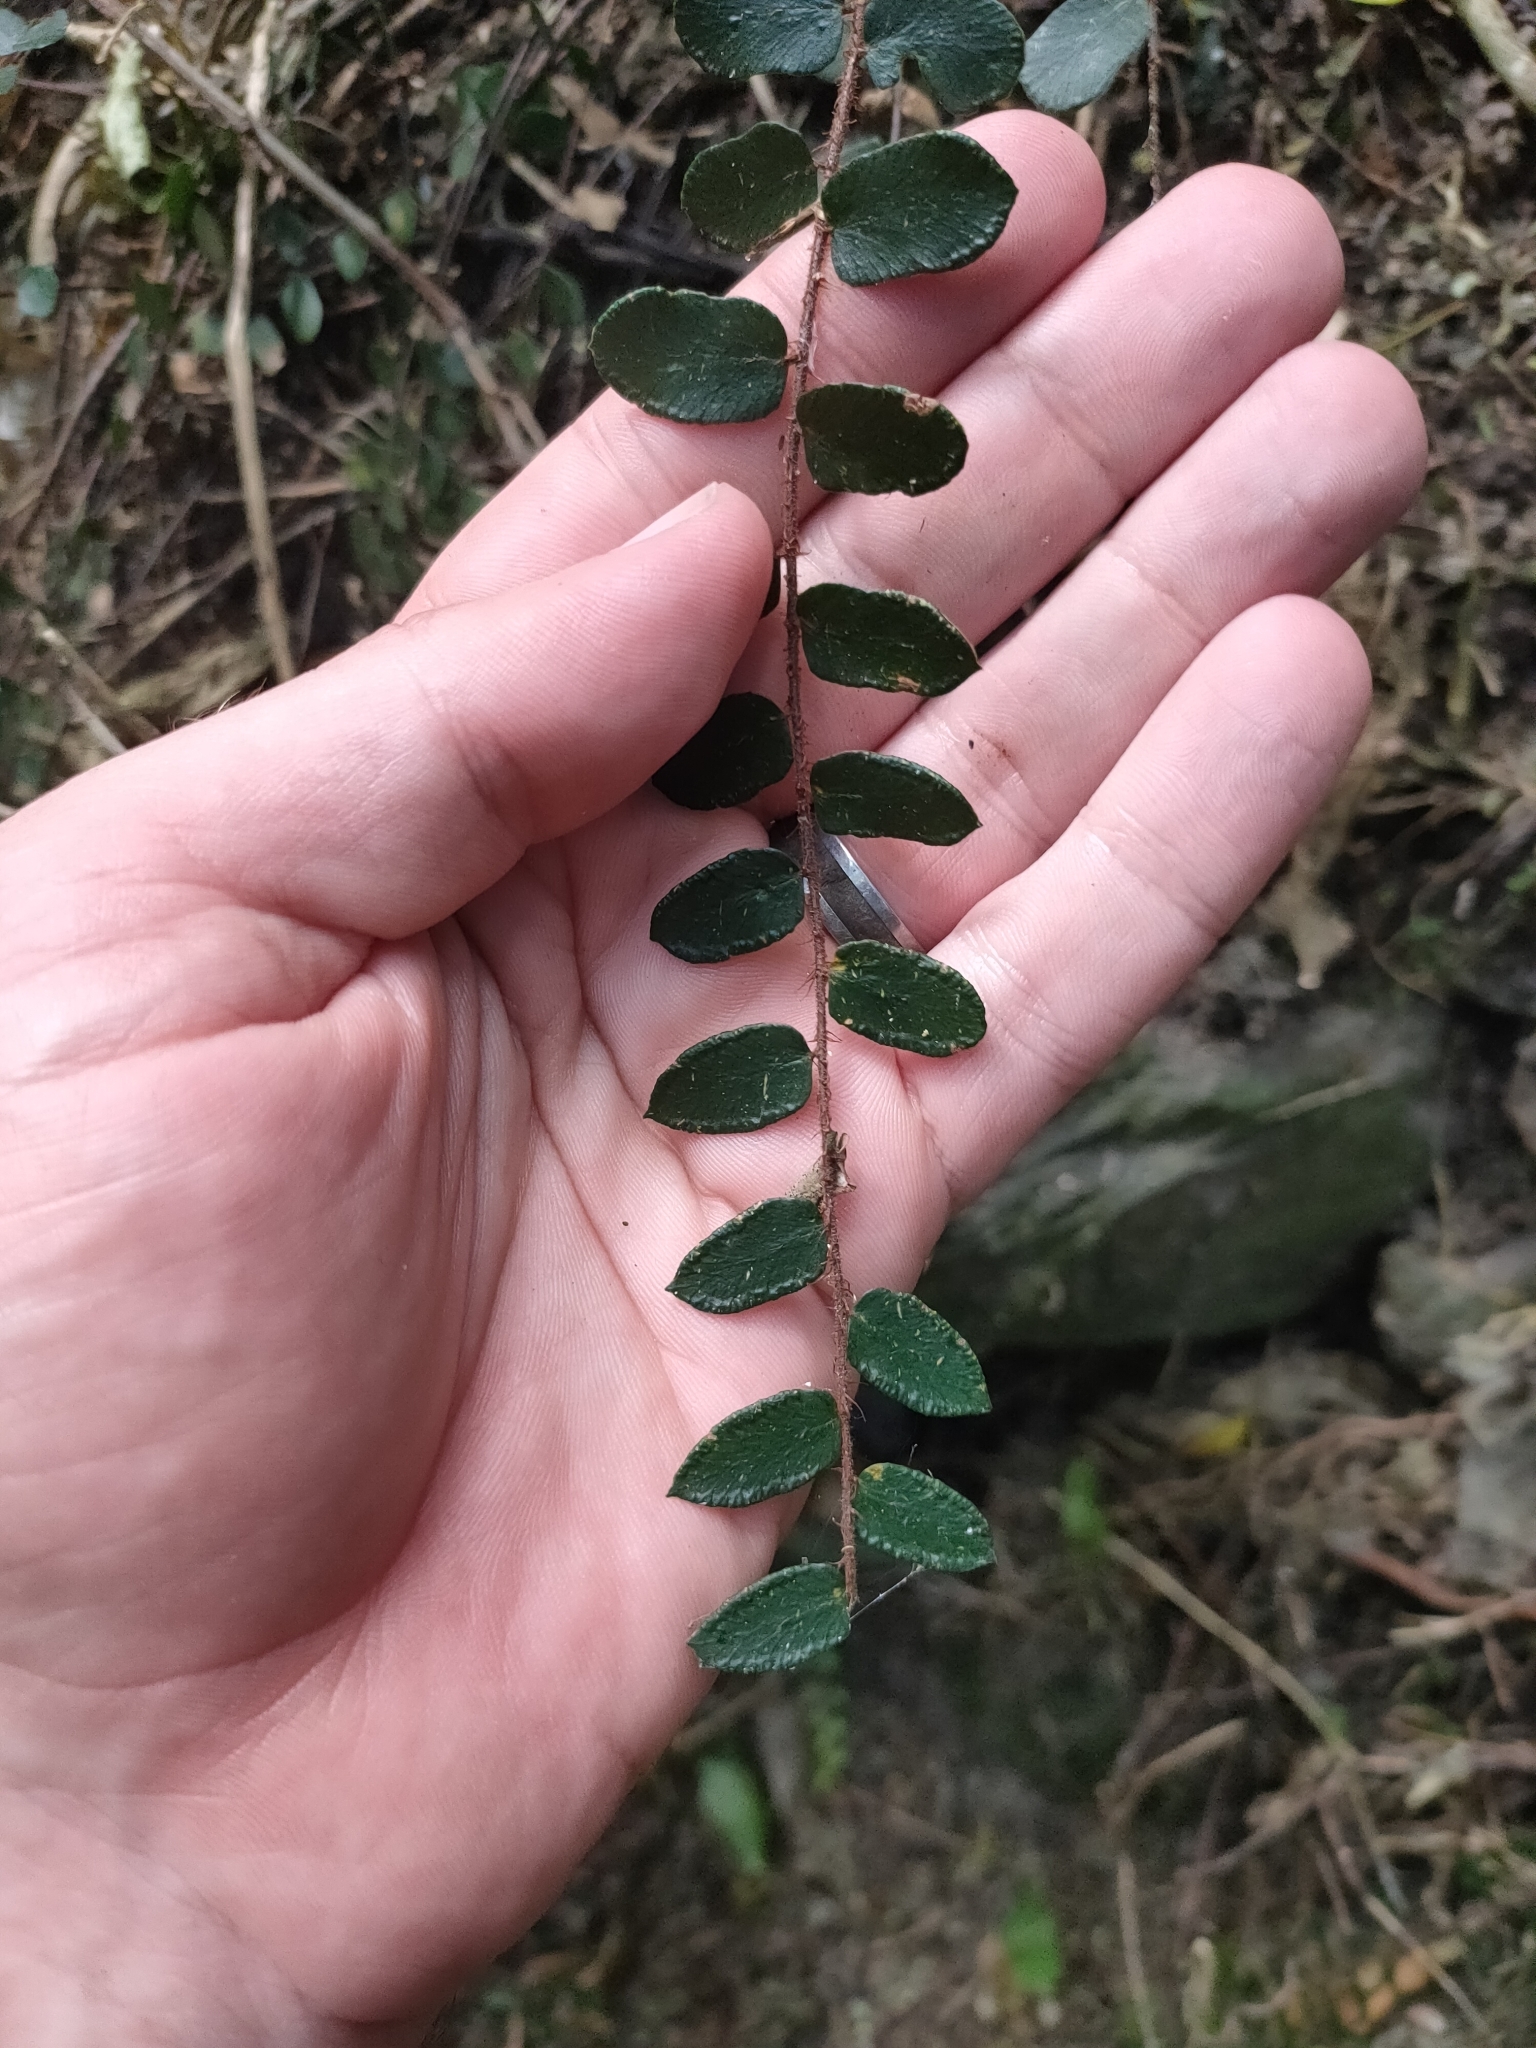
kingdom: Plantae
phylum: Tracheophyta
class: Polypodiopsida
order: Polypodiales
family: Pteridaceae
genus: Pellaea
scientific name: Pellaea rotundifolia
